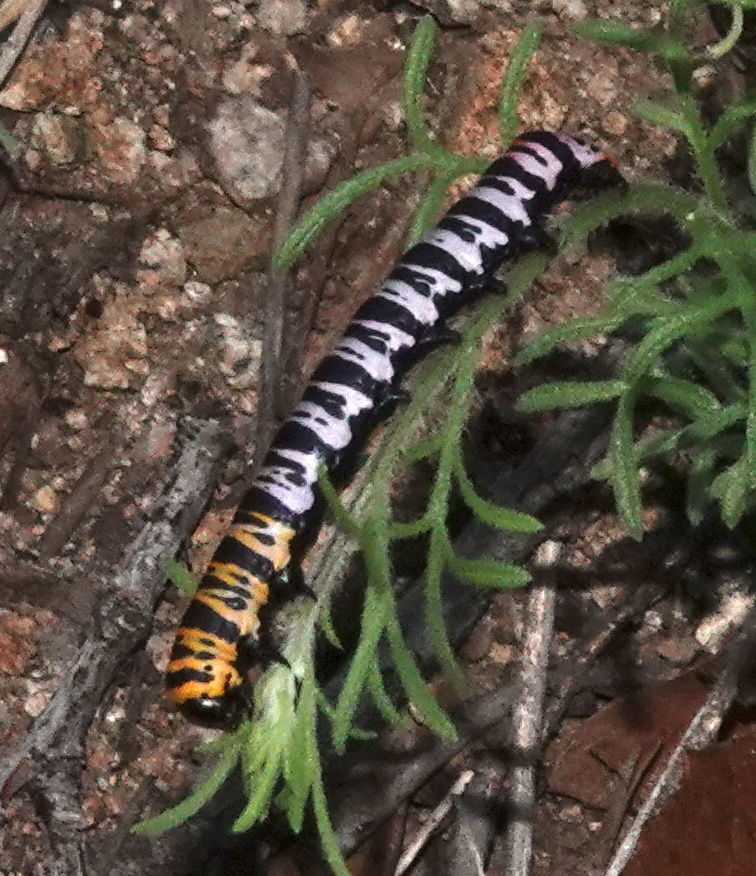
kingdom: Animalia
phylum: Arthropoda
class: Insecta
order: Lepidoptera
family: Noctuidae
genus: Cucullia
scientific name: Cucullia lilacina
